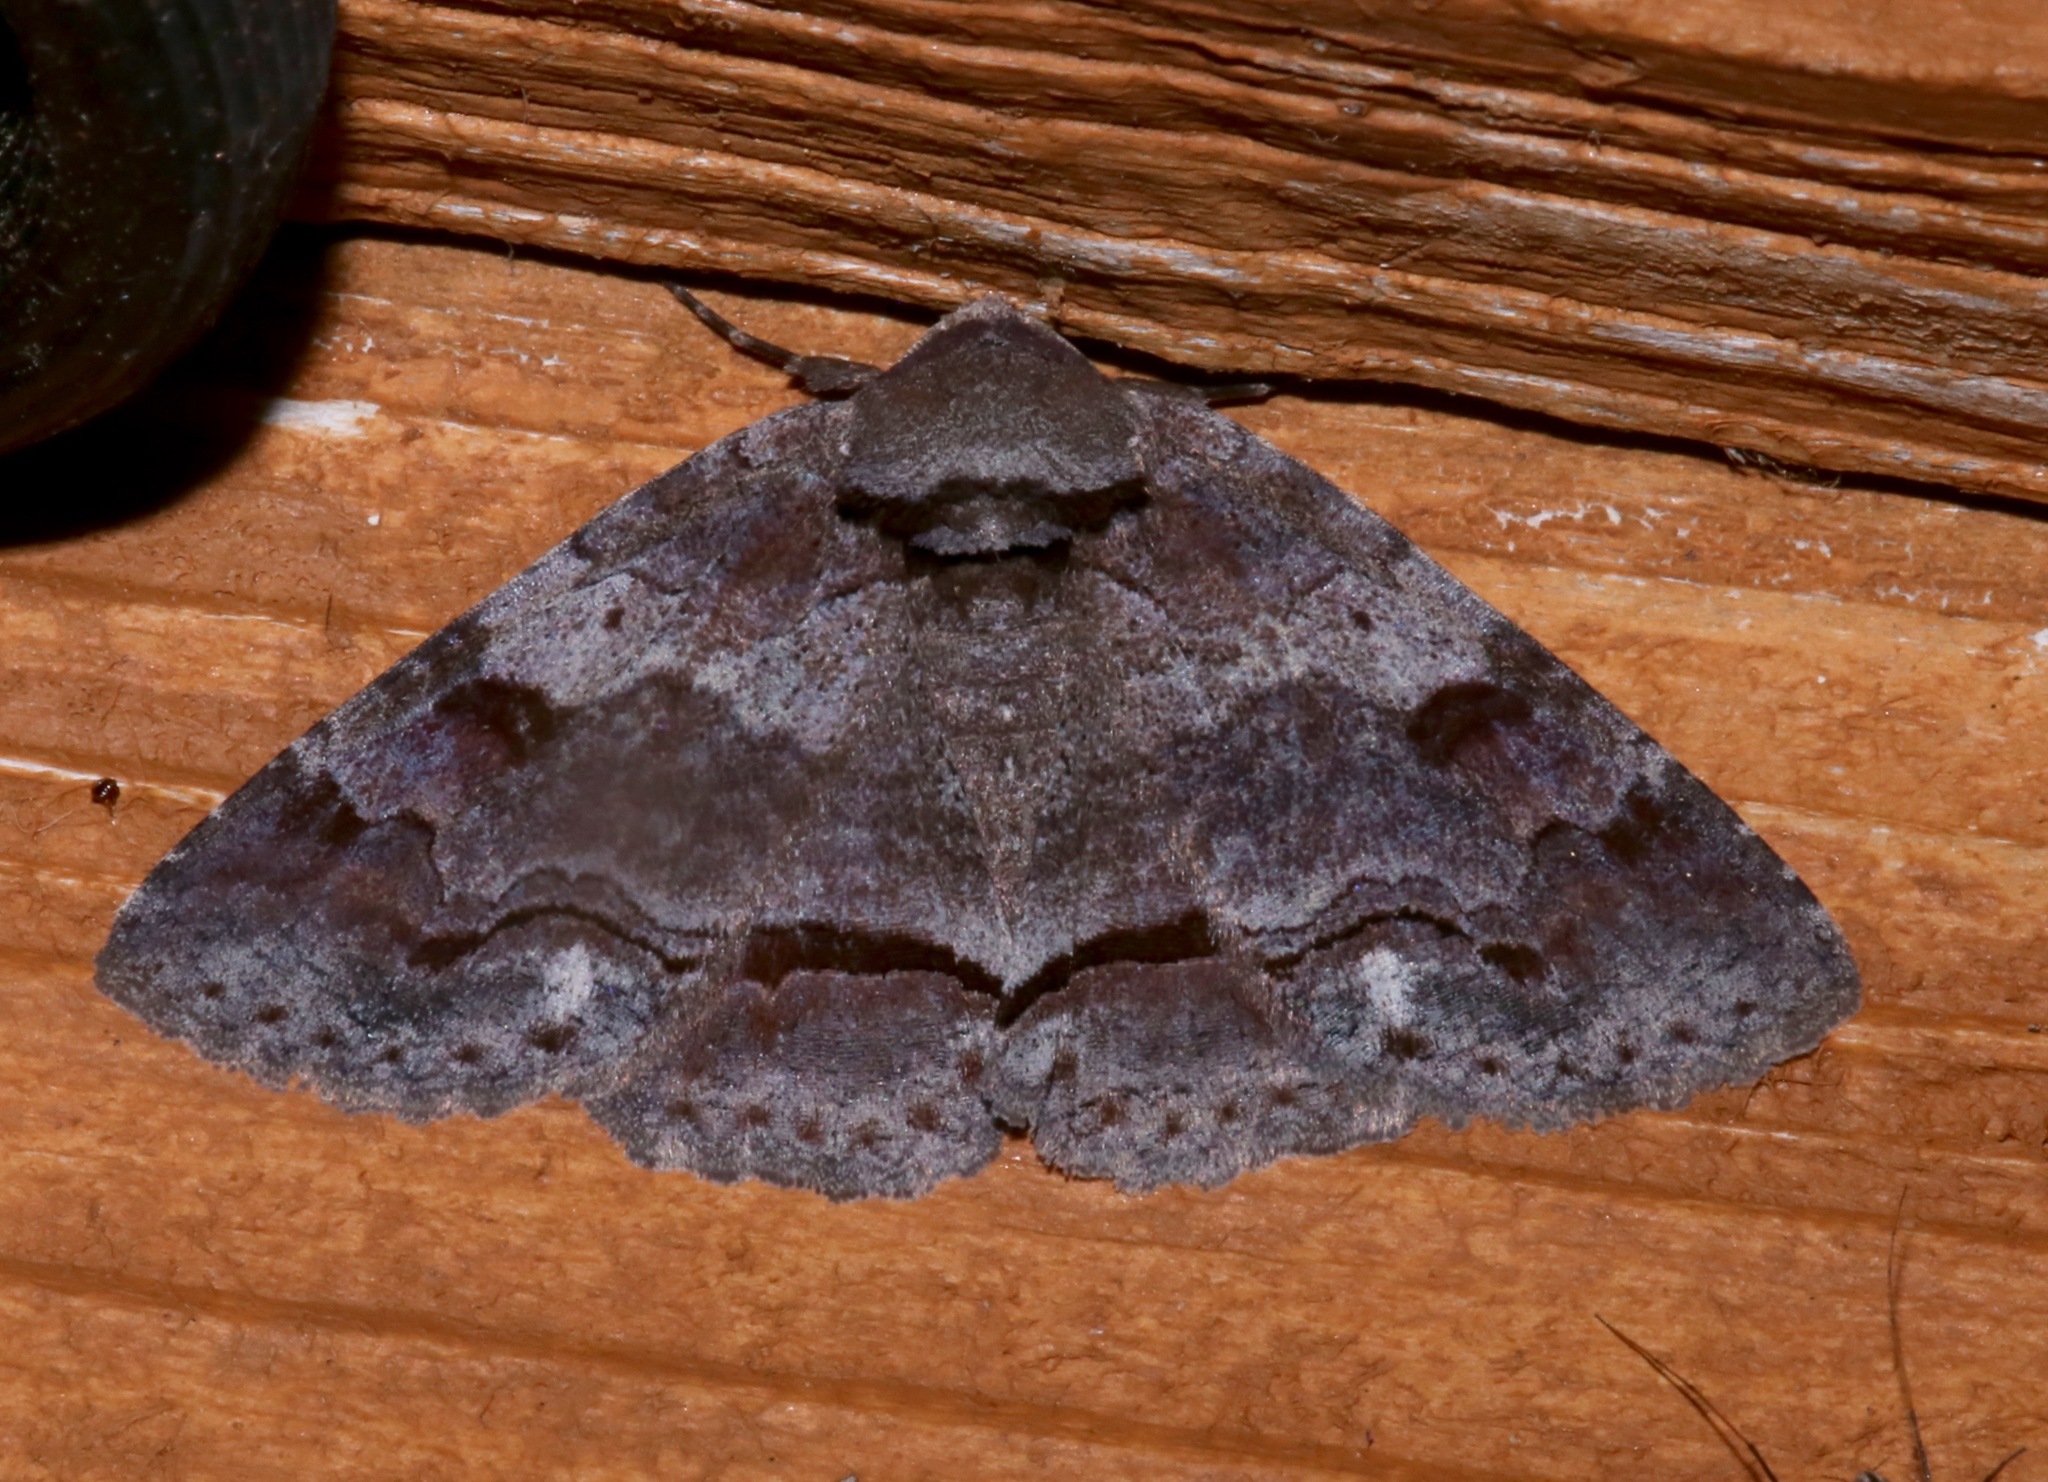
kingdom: Animalia
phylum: Arthropoda
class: Insecta
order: Lepidoptera
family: Erebidae
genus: Zale
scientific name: Zale obliqua
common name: Oblique zale moth
